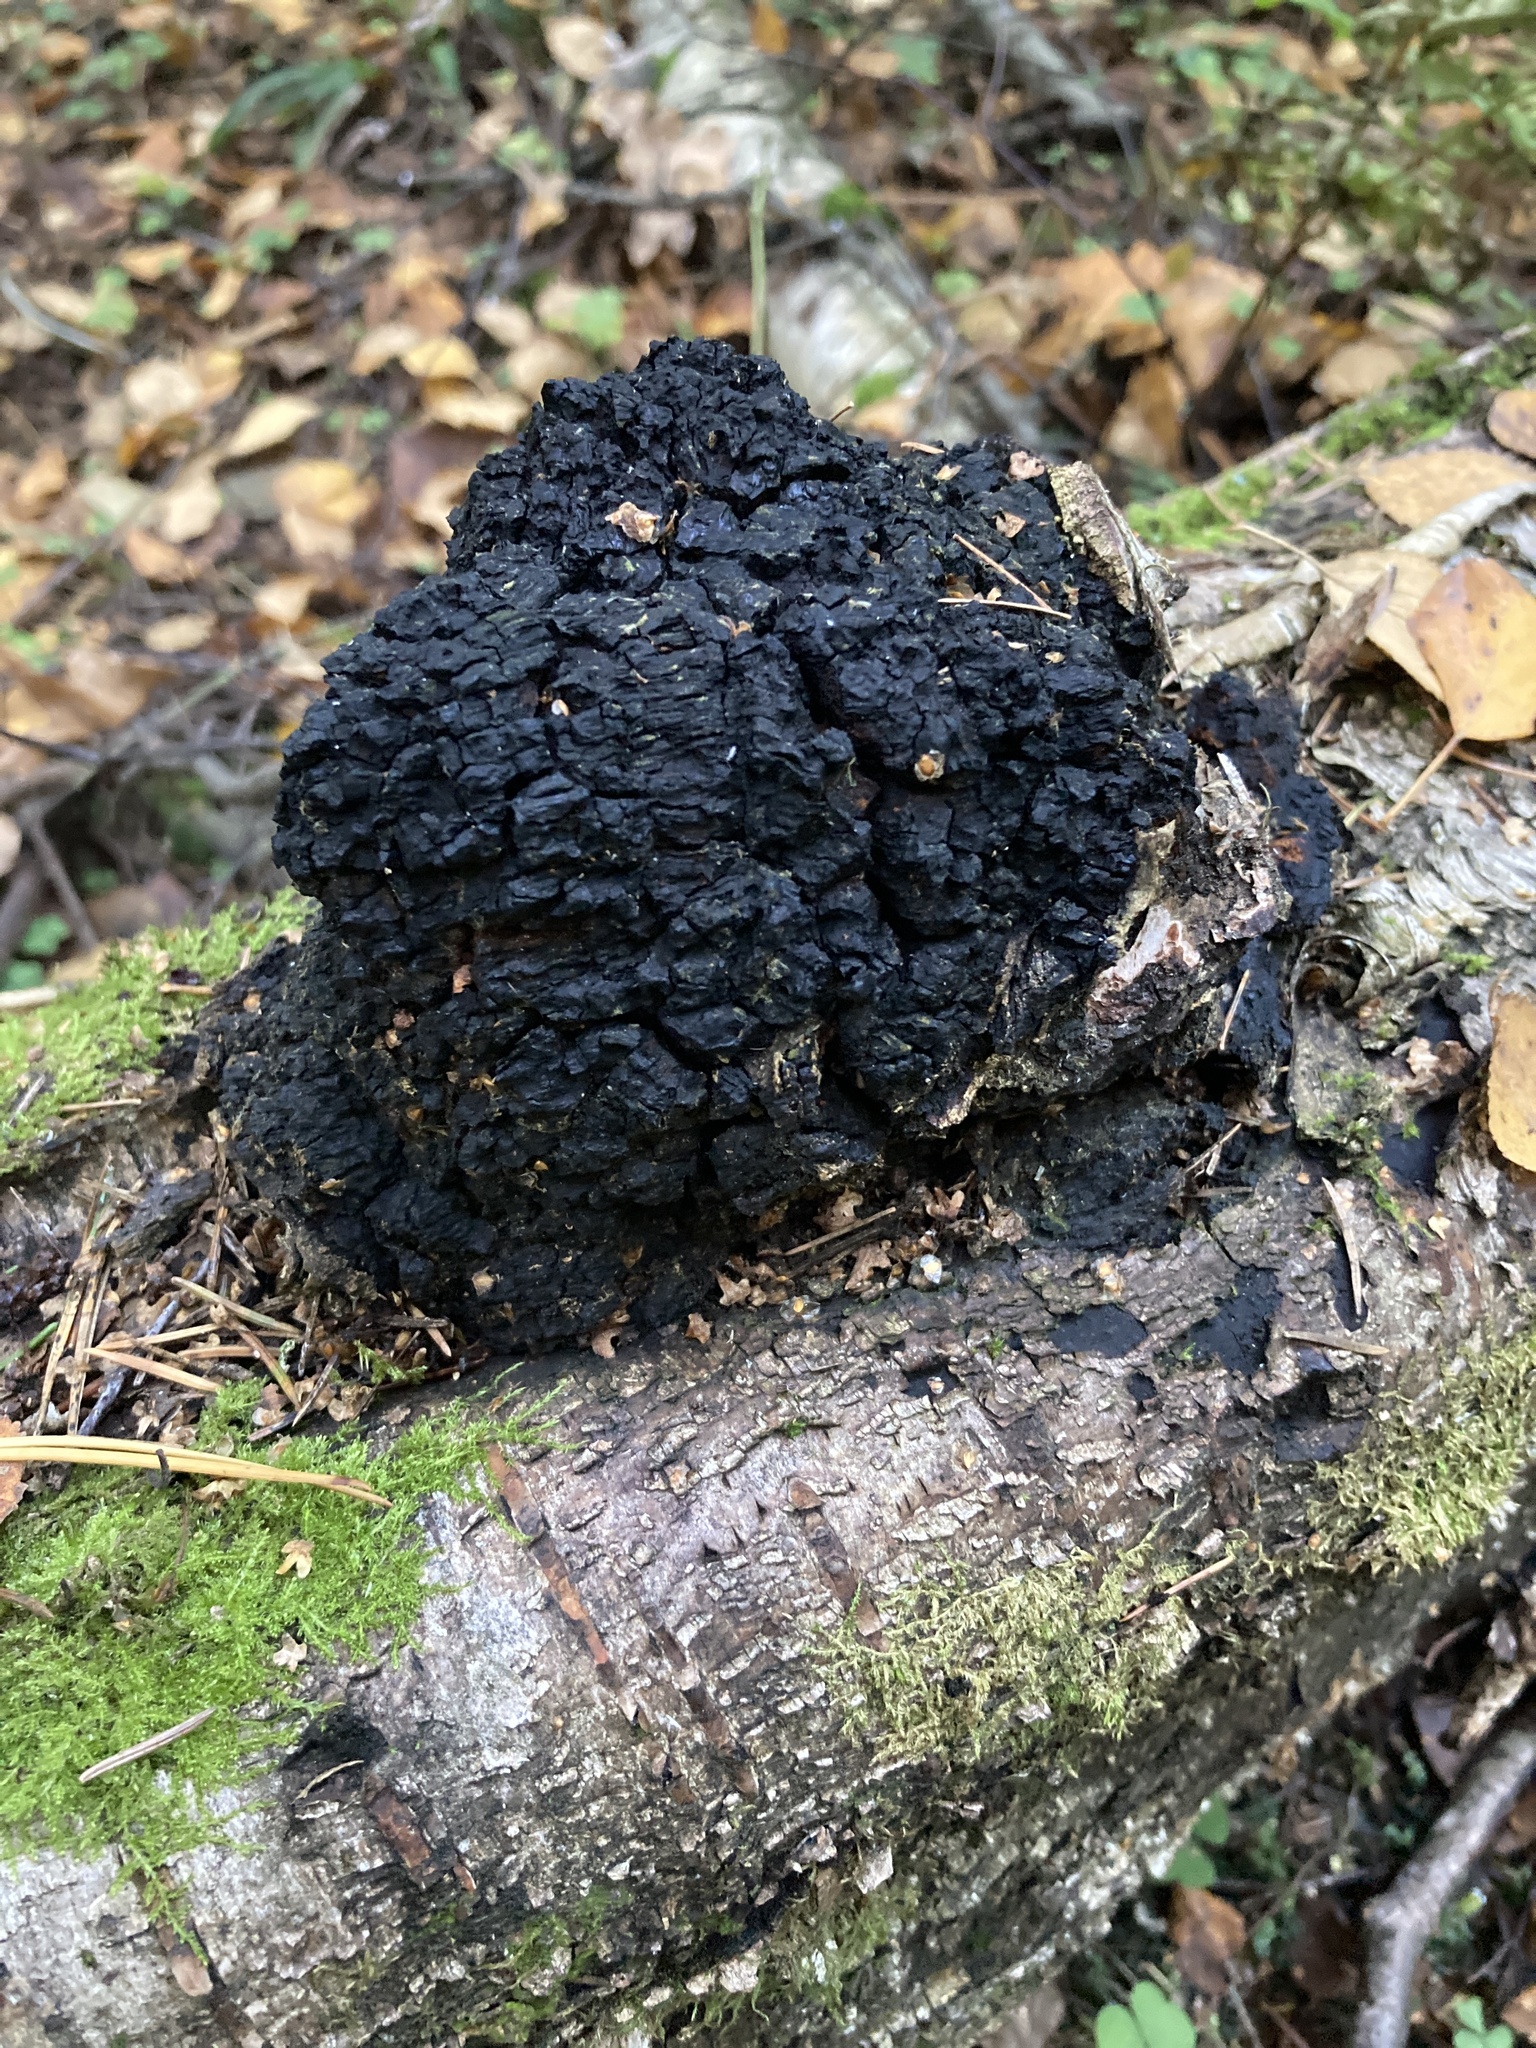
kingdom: Fungi
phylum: Basidiomycota
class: Agaricomycetes
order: Hymenochaetales
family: Hymenochaetaceae
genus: Inonotus
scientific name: Inonotus obliquus
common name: Chaga
